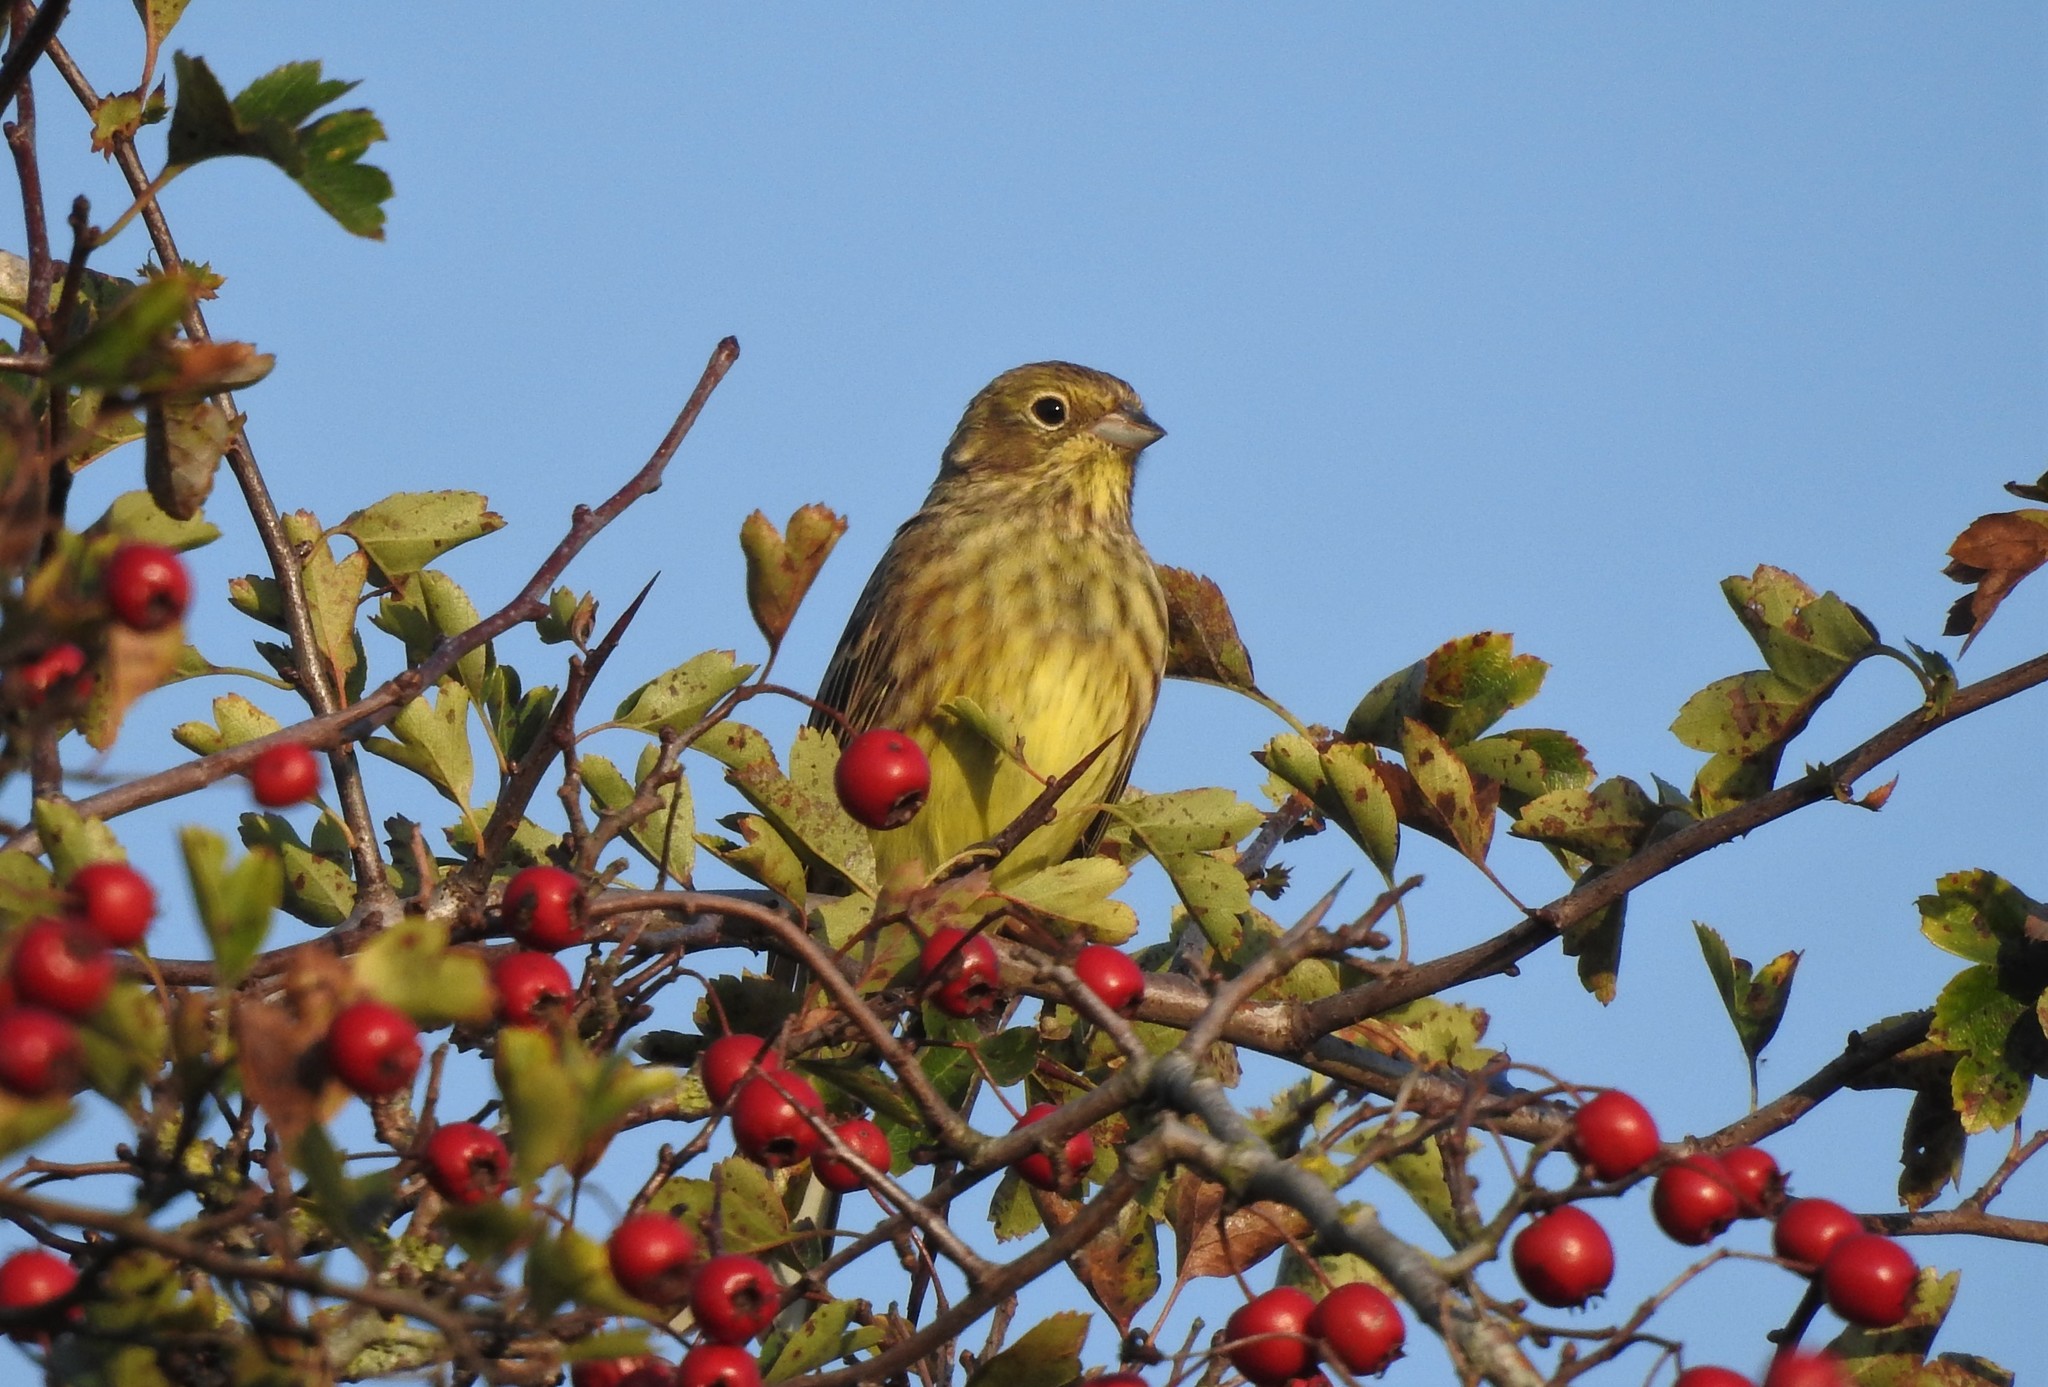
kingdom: Animalia
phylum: Chordata
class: Aves
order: Passeriformes
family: Emberizidae
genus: Emberiza
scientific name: Emberiza citrinella
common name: Yellowhammer
